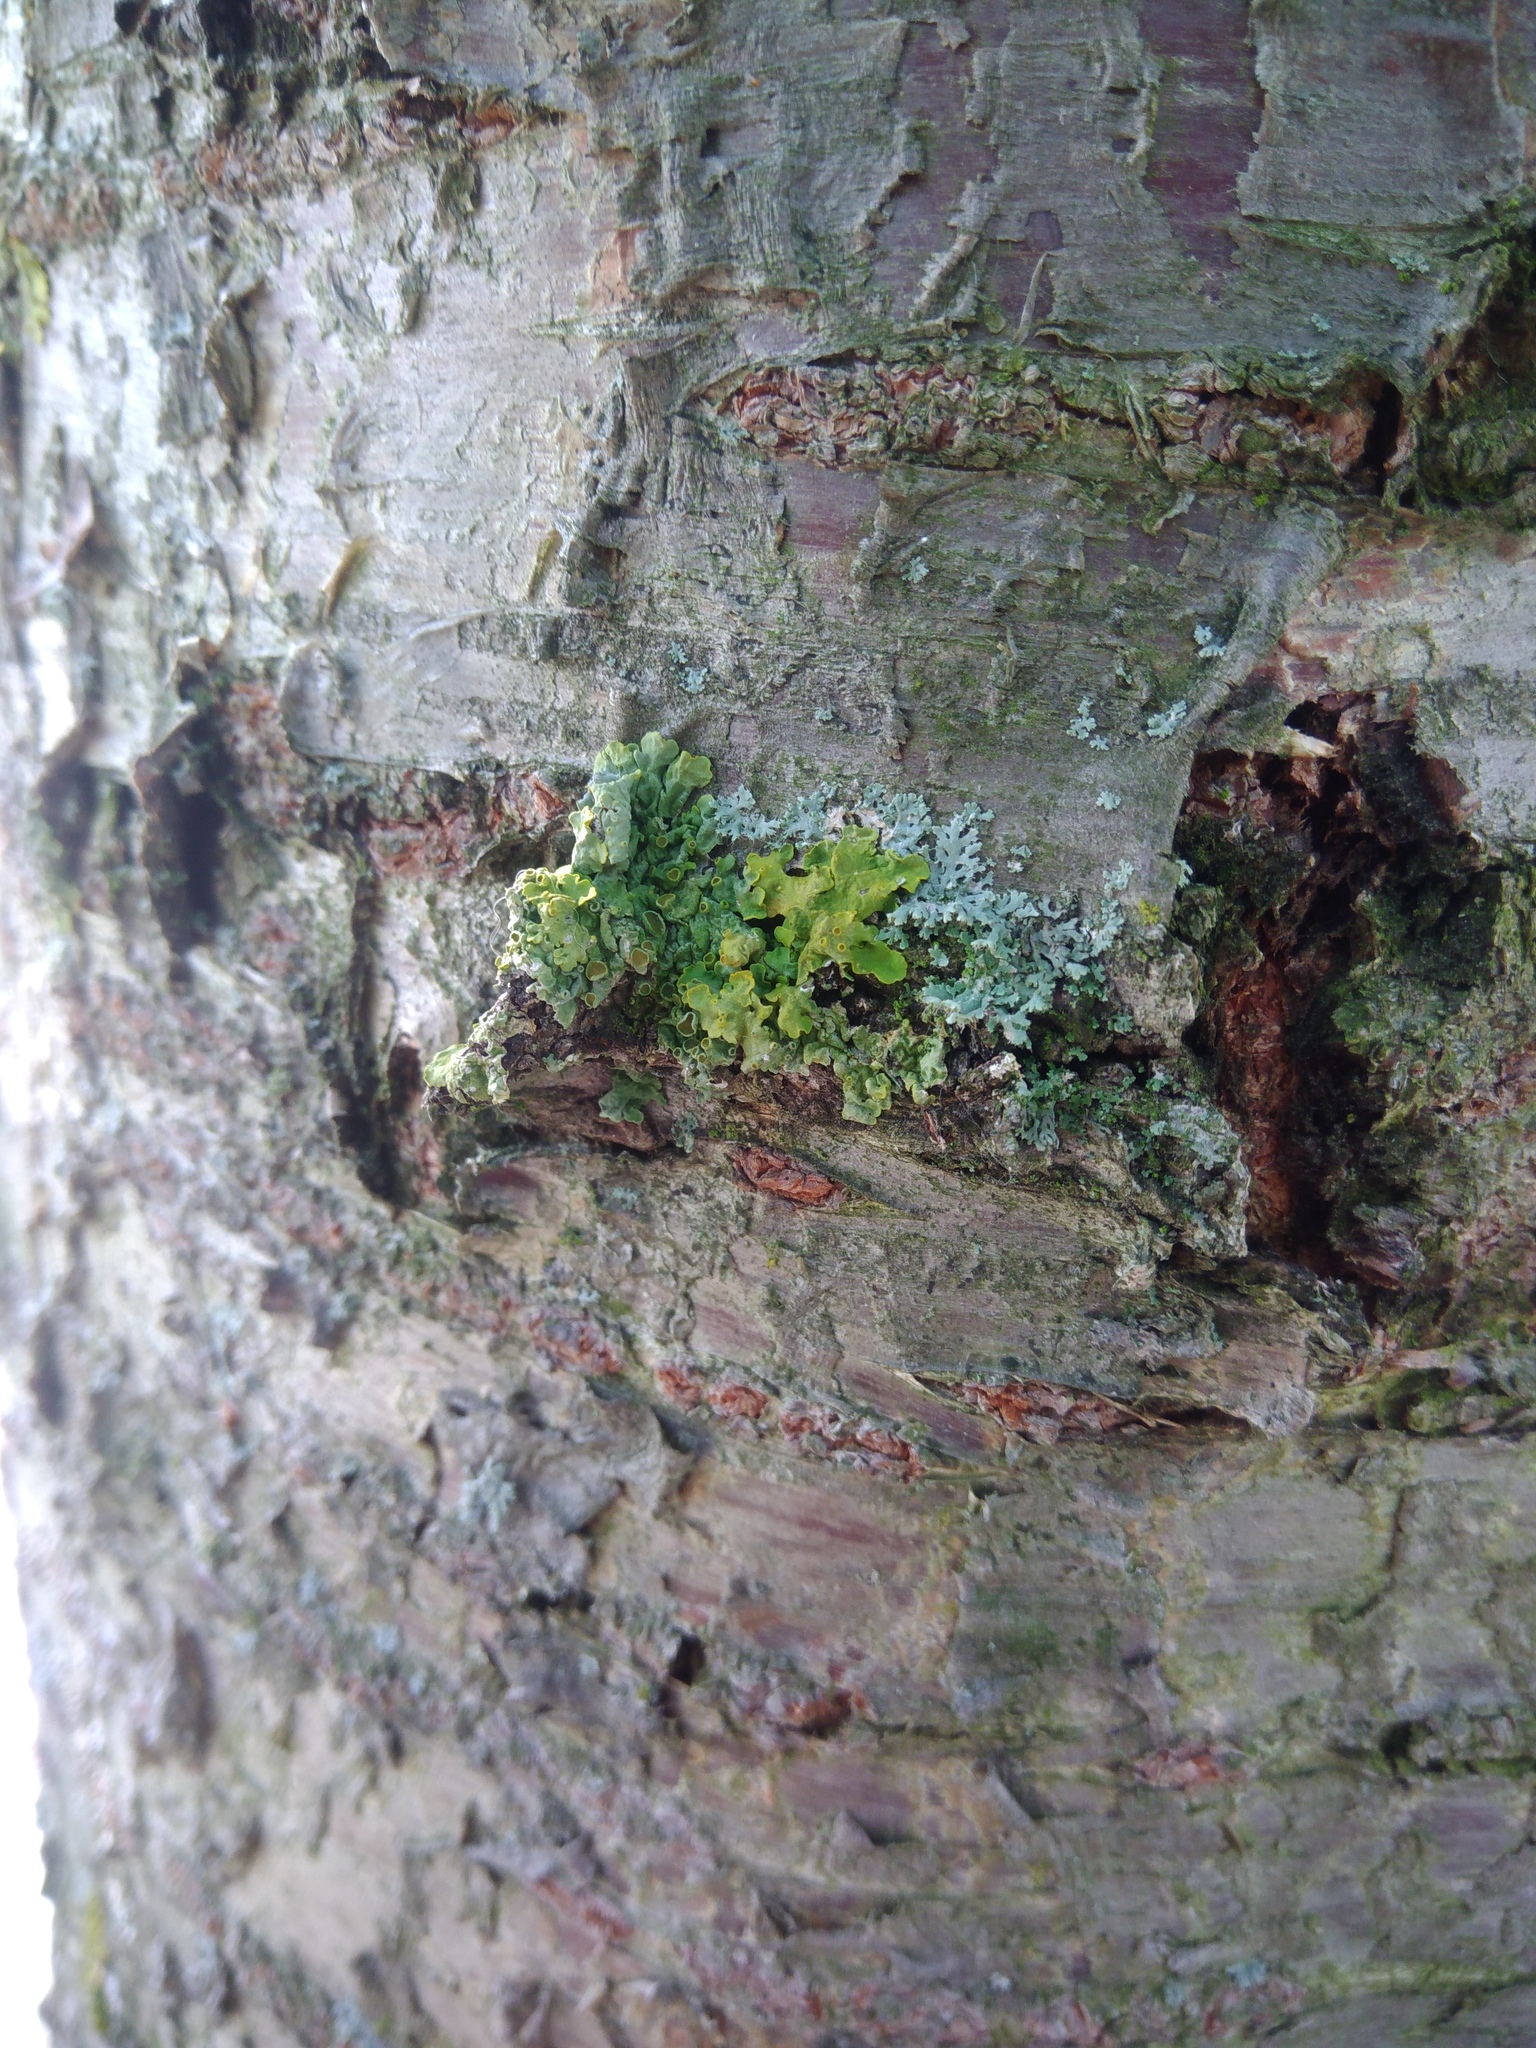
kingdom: Fungi
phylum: Ascomycota
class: Lecanoromycetes
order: Teloschistales
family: Teloschistaceae
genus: Xanthoria
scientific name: Xanthoria parietina
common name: Common orange lichen
